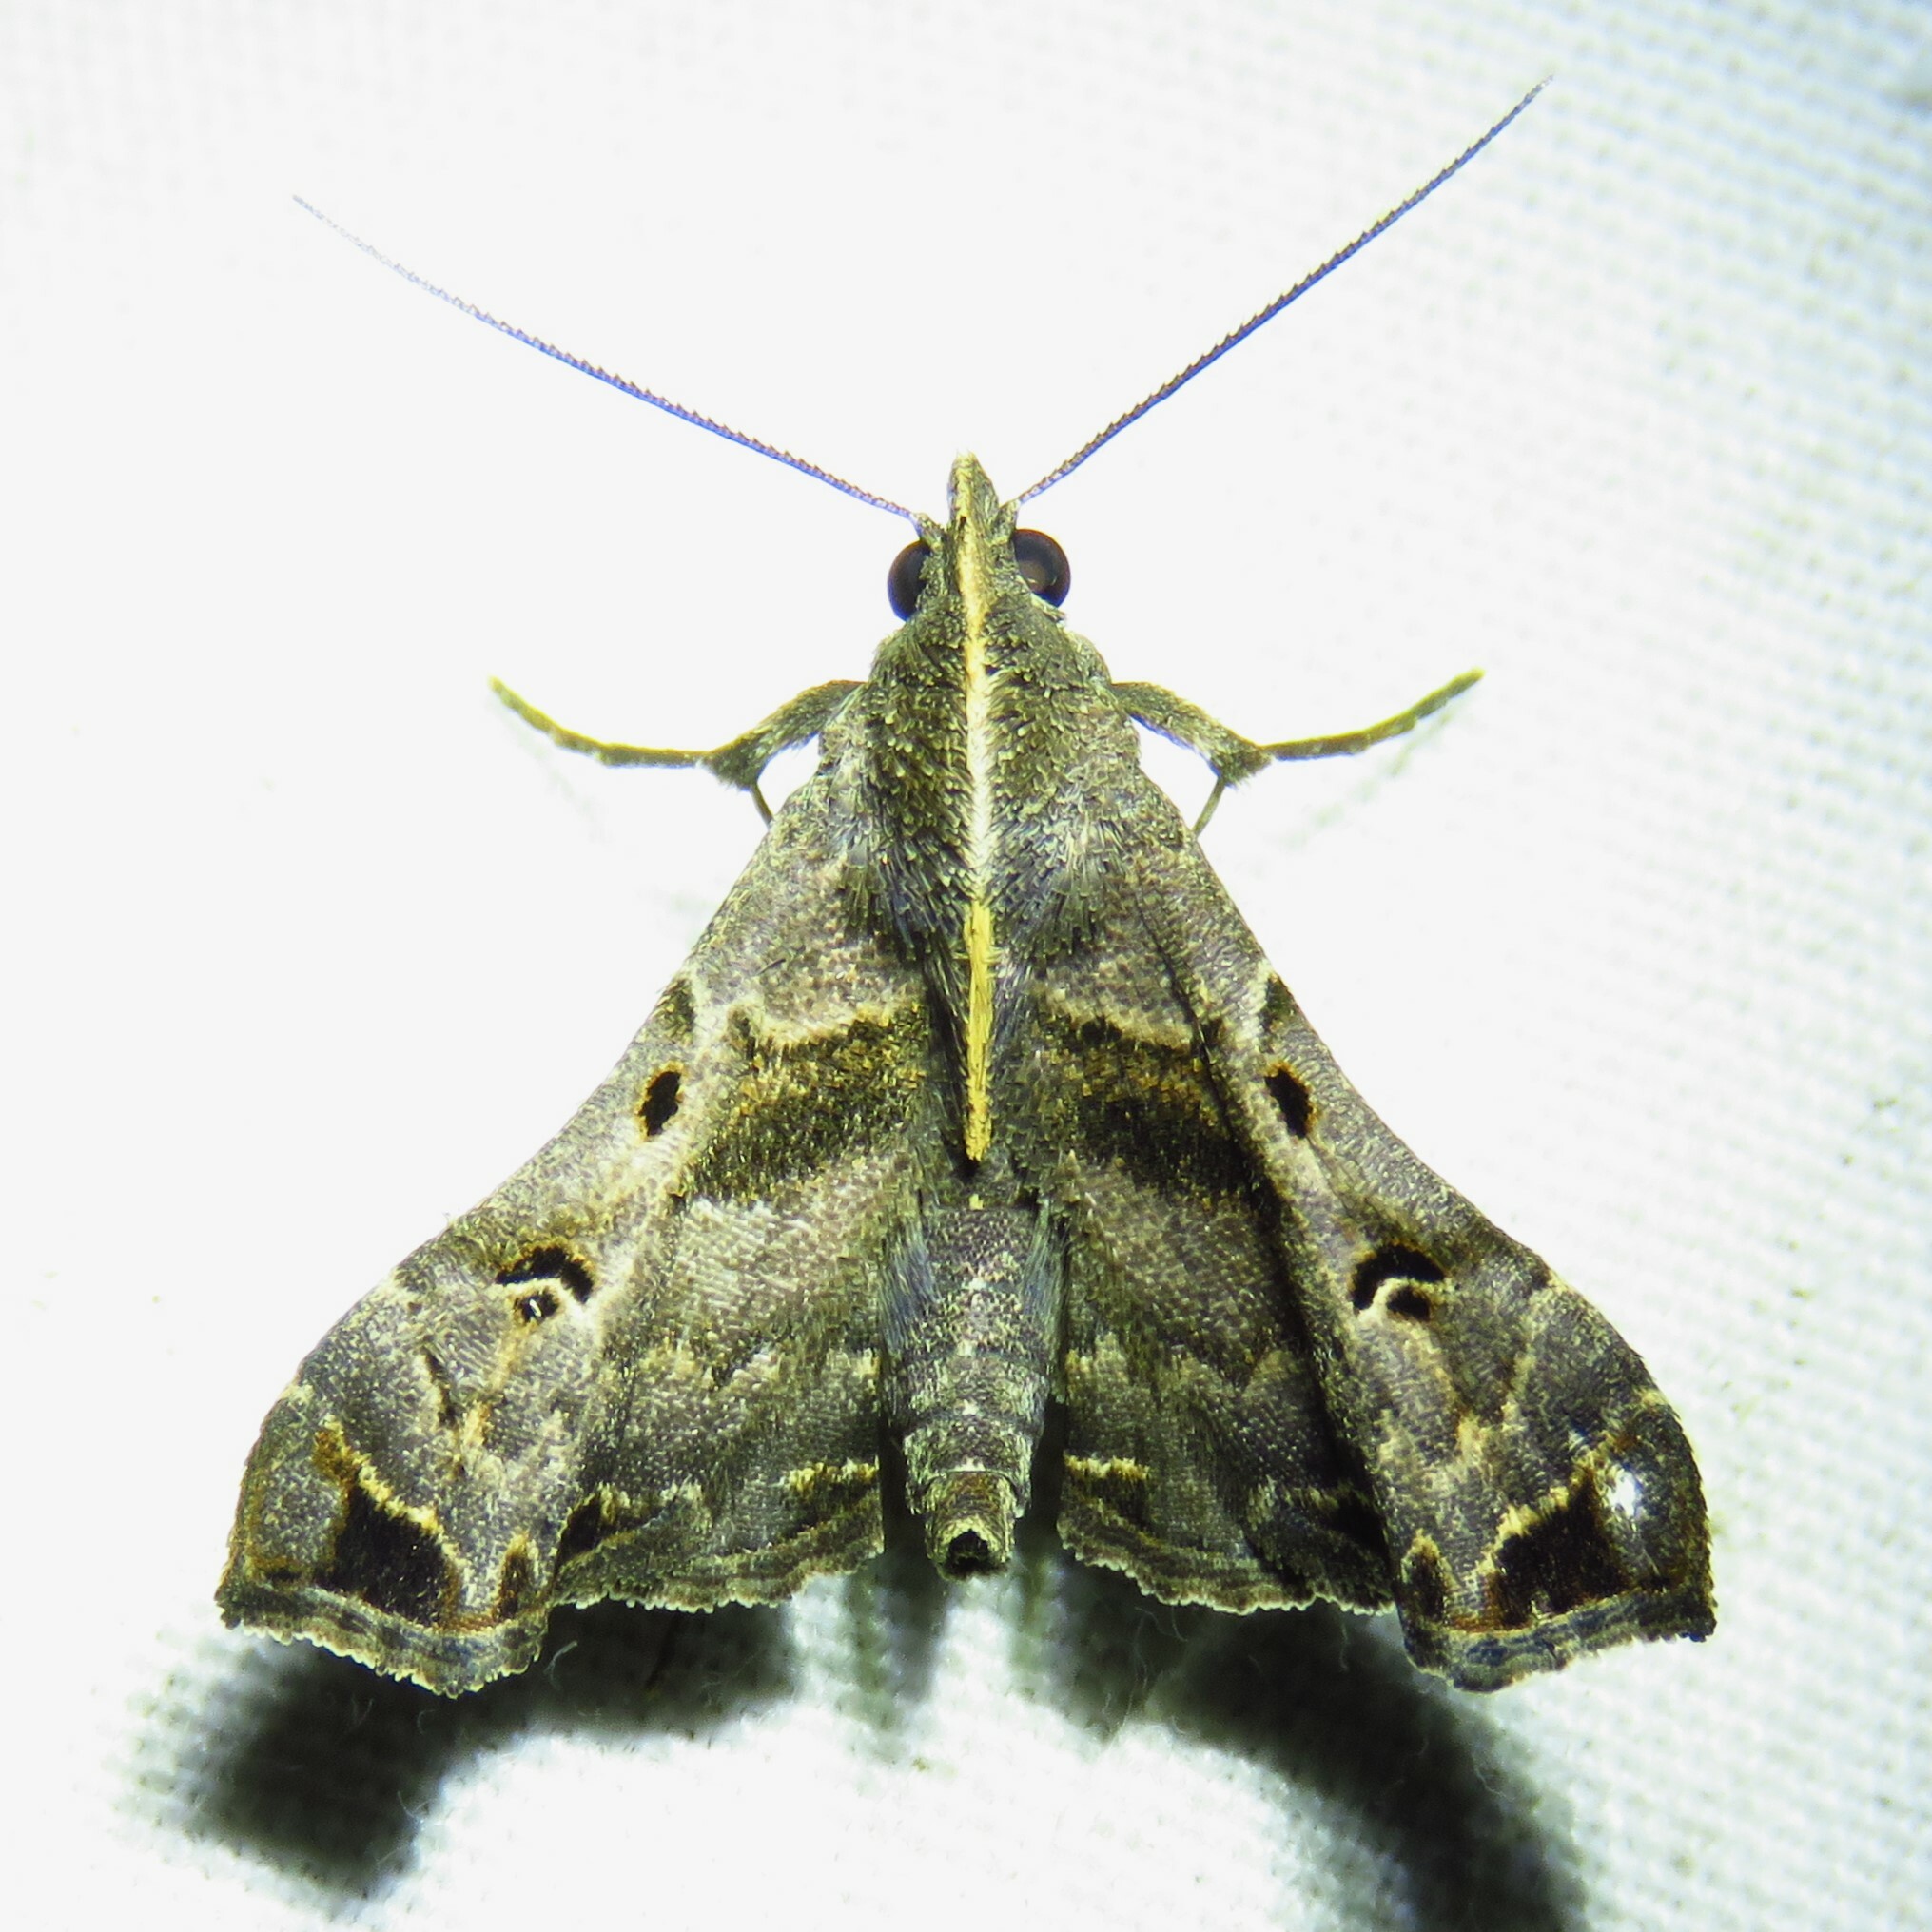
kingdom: Animalia
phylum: Arthropoda
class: Insecta
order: Lepidoptera
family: Erebidae
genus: Palthis
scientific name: Palthis asopialis
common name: Faint-spotted palthis moth
